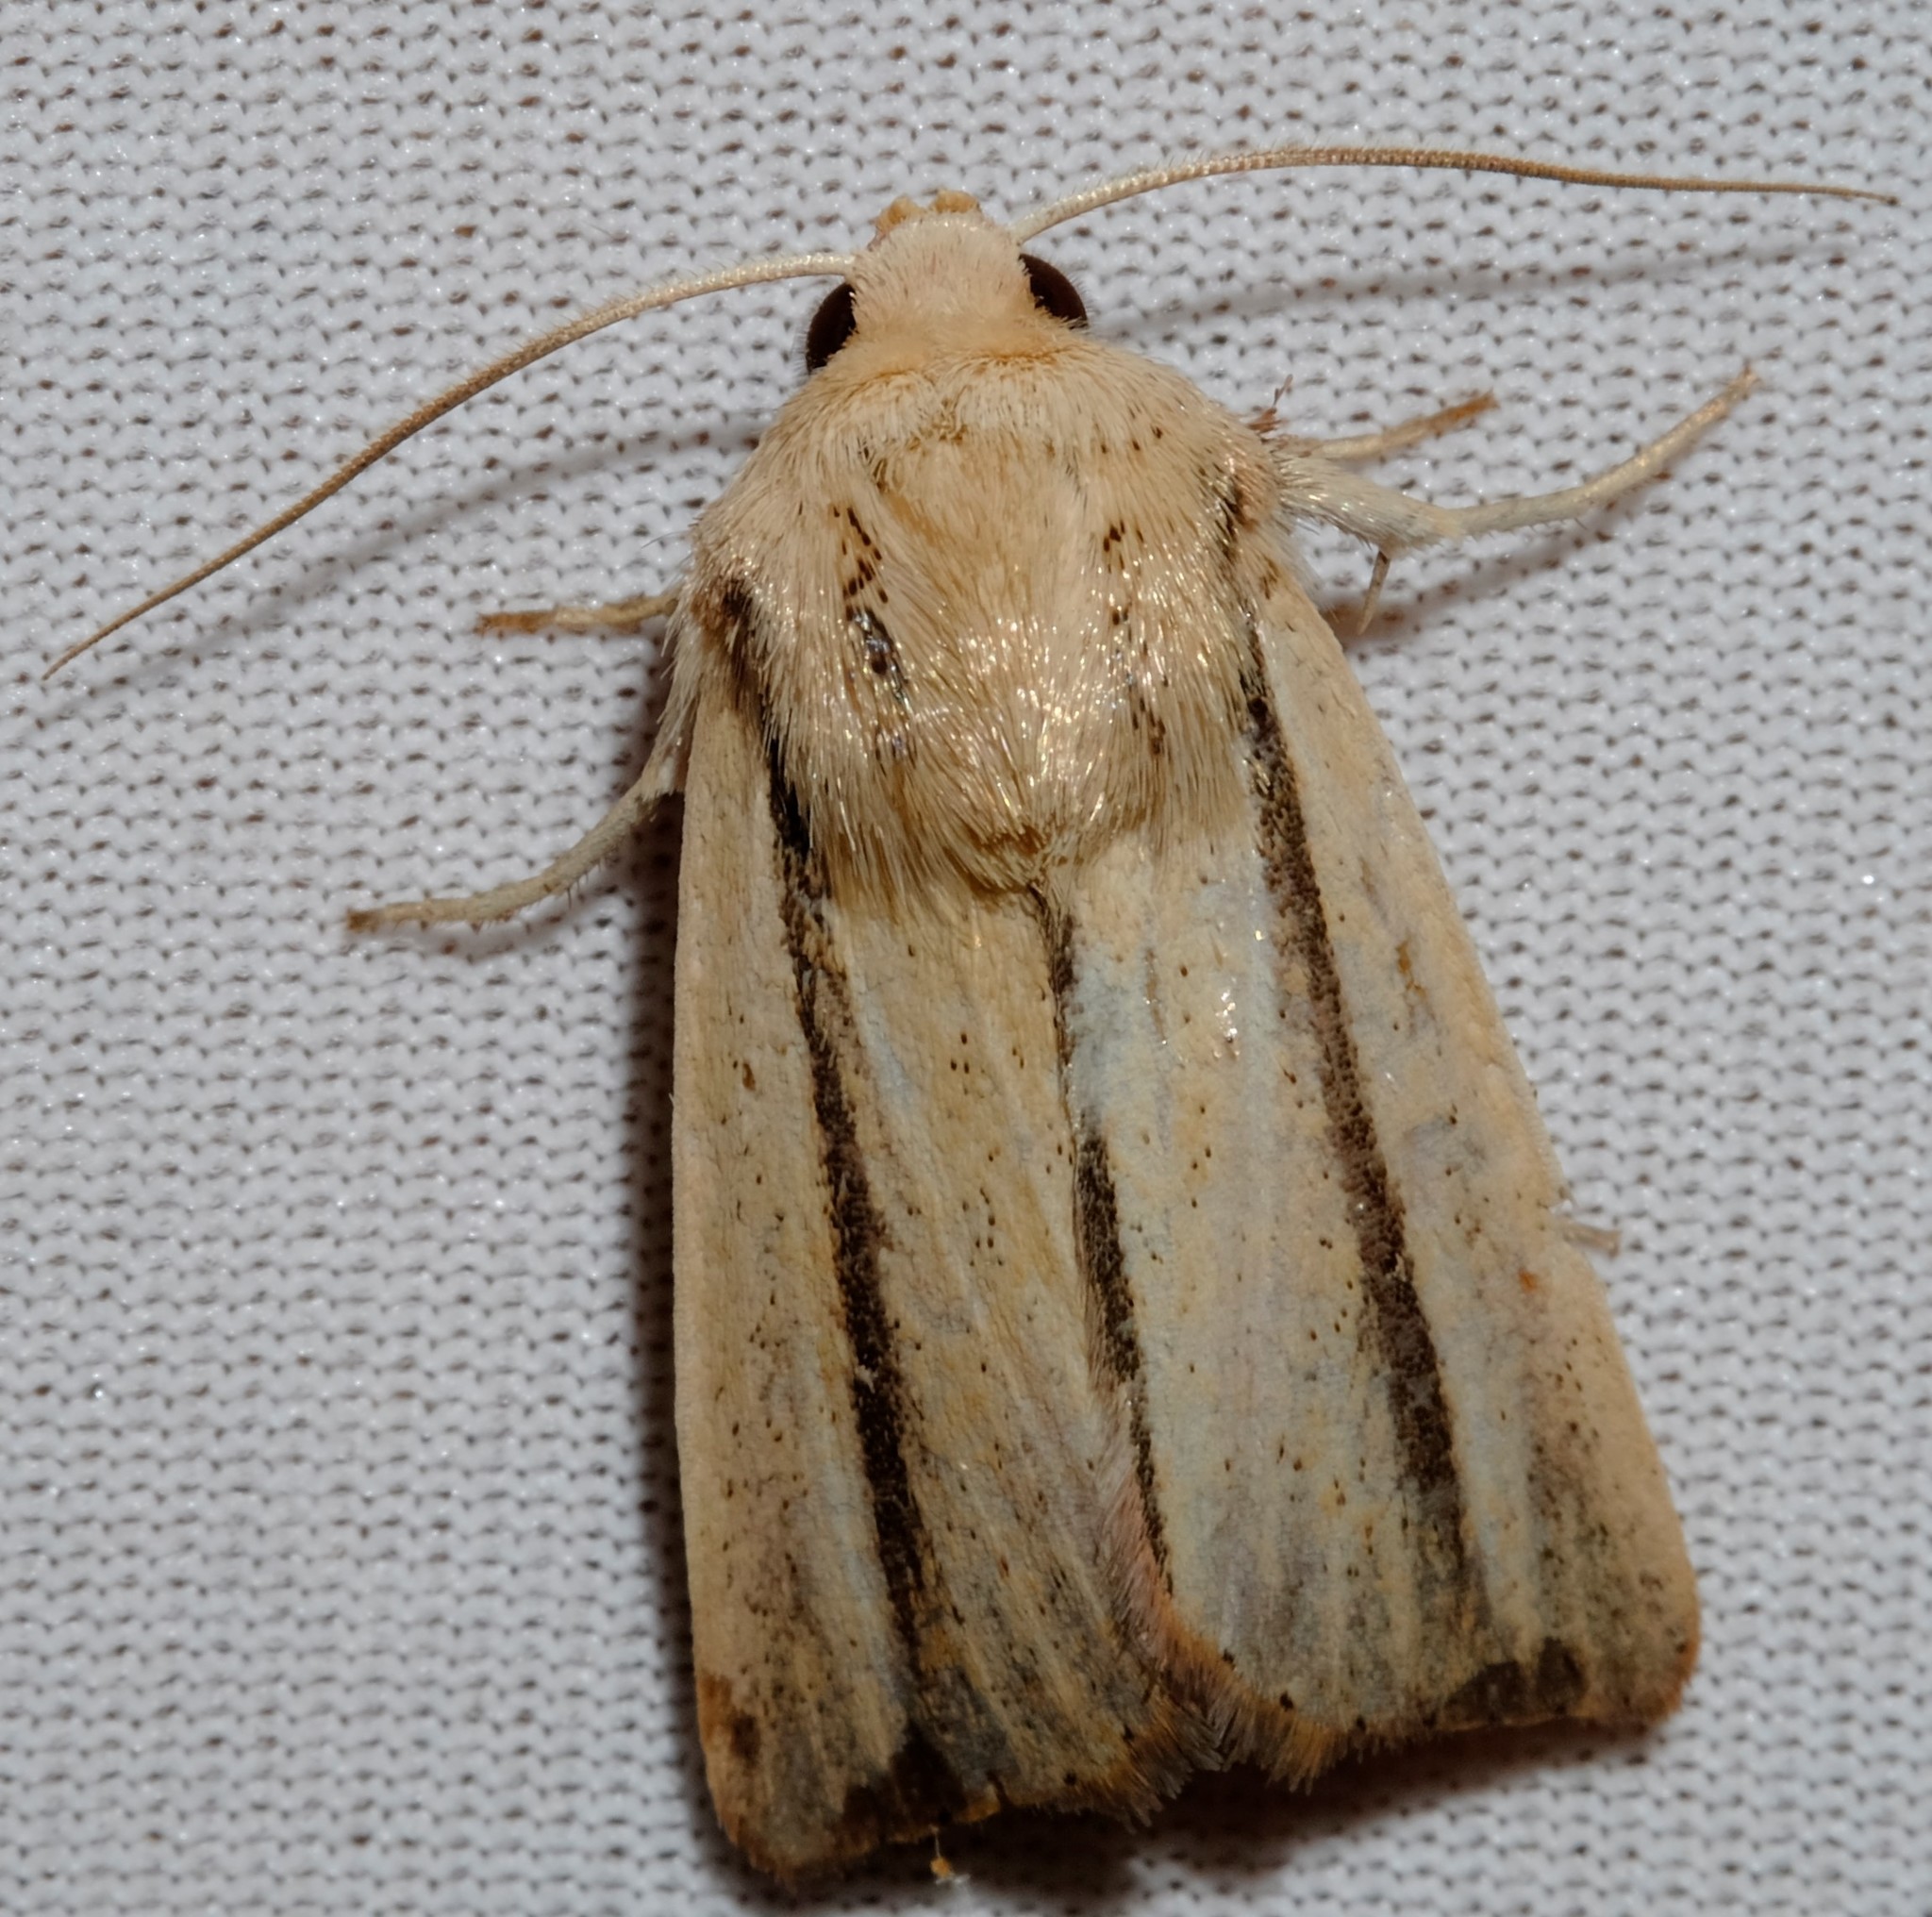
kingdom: Animalia
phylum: Arthropoda
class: Insecta
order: Lepidoptera
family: Noctuidae
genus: Leucania
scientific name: Leucania diatrecta
